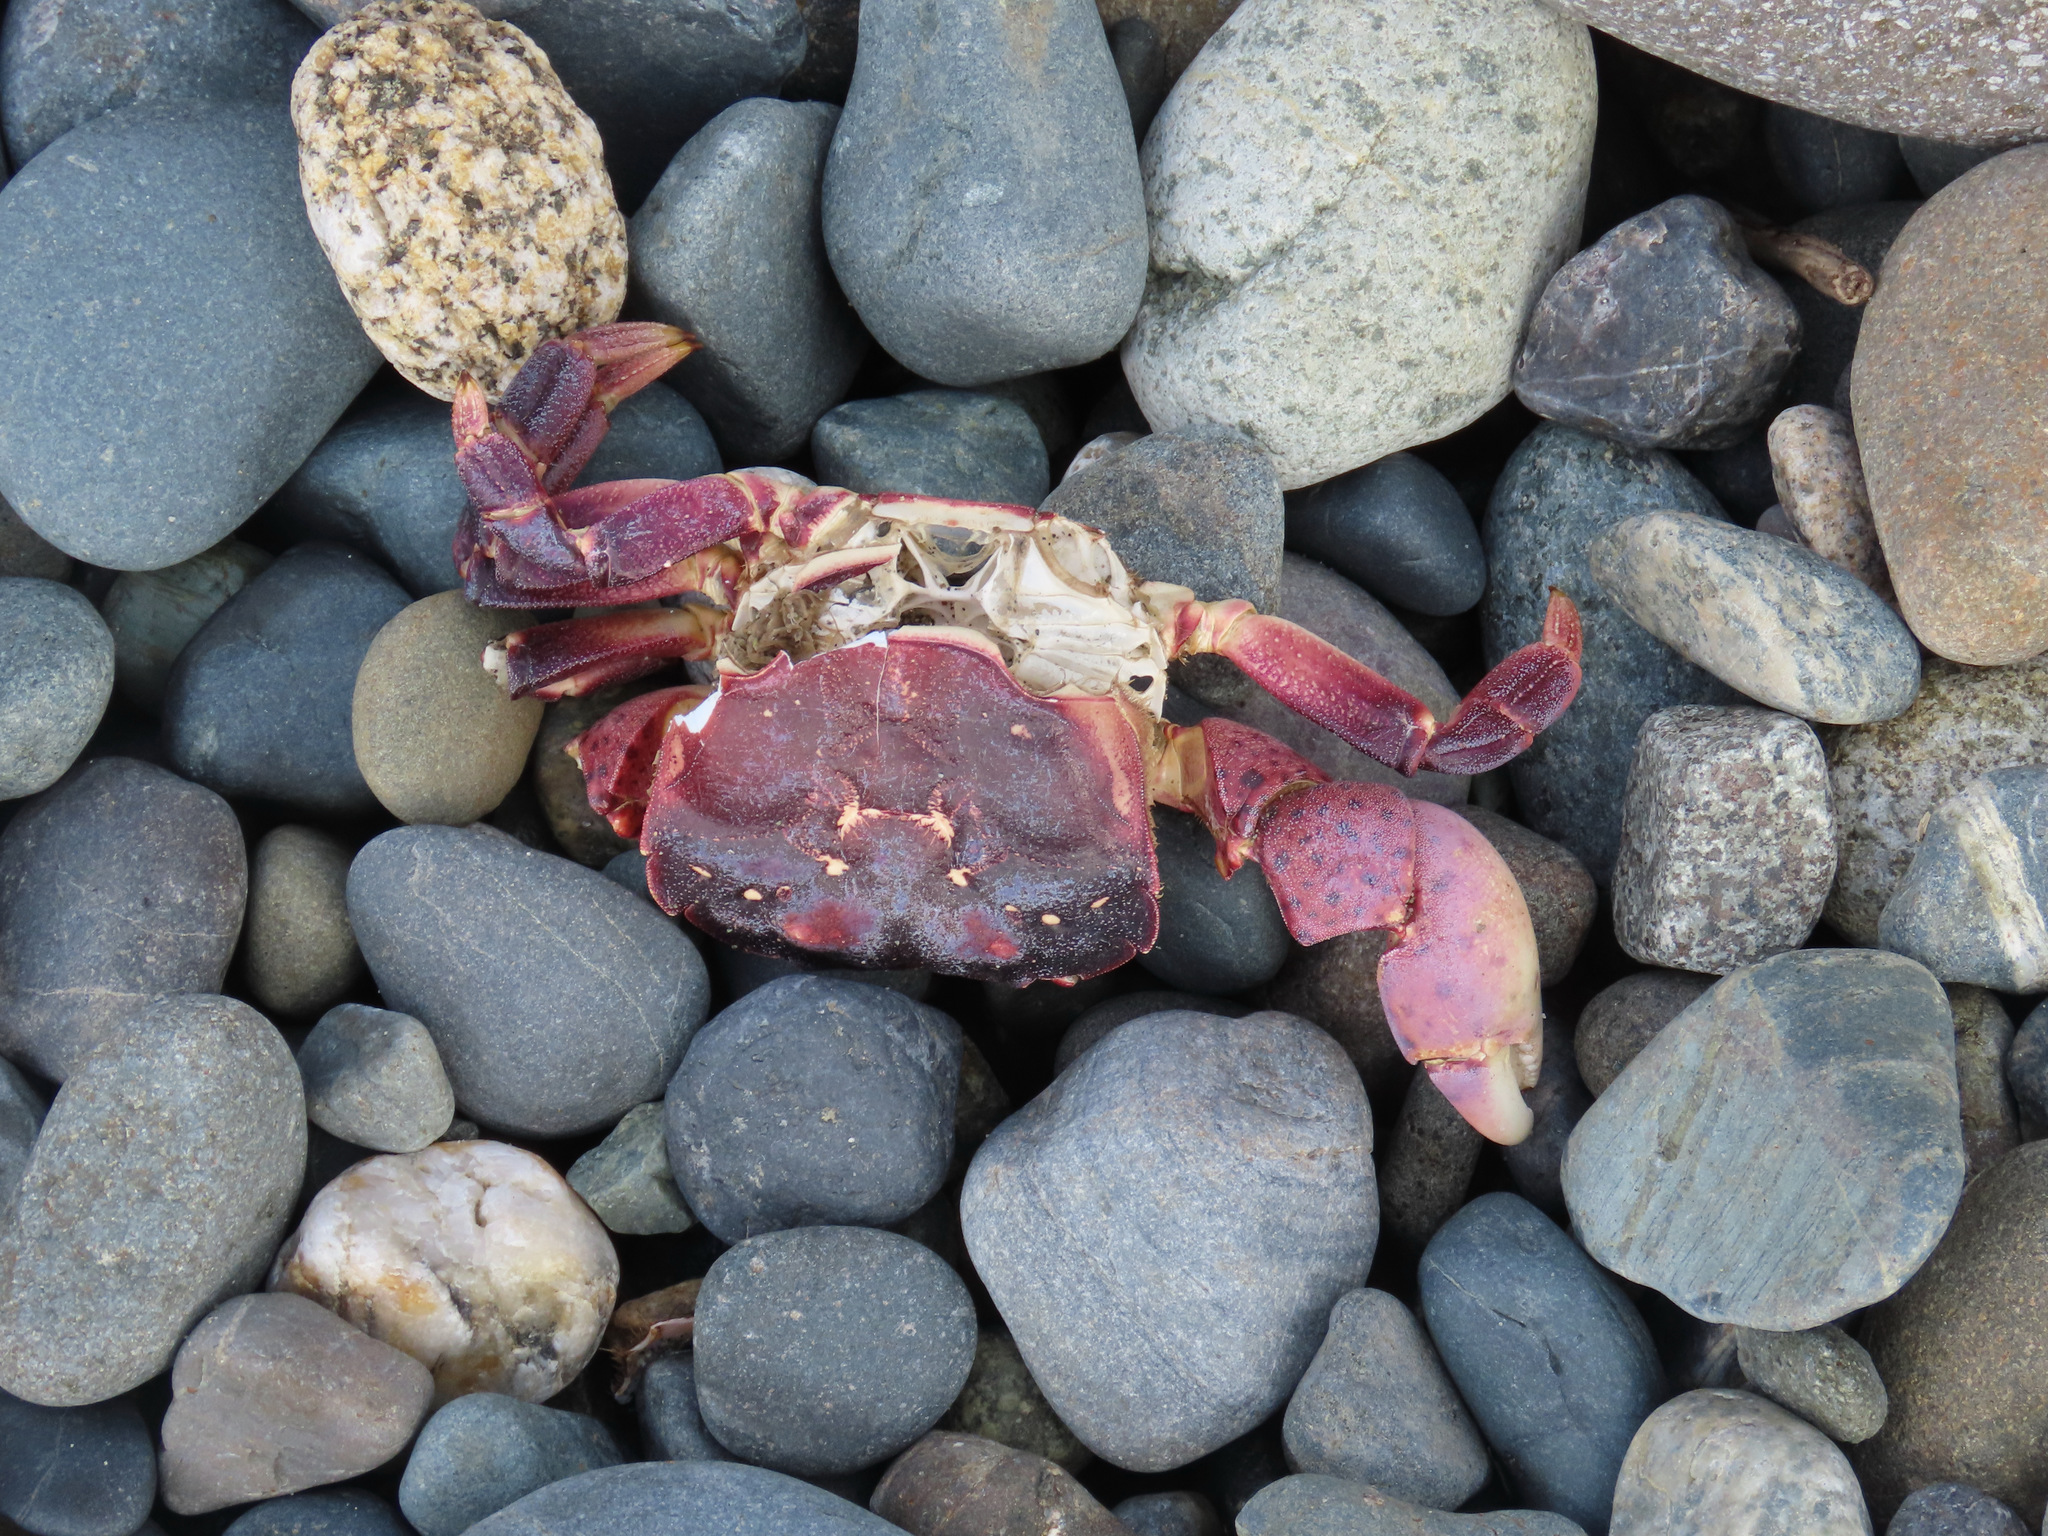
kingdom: Animalia
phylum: Arthropoda
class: Malacostraca
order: Decapoda
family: Varunidae
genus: Hemigrapsus
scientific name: Hemigrapsus nudus
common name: Purple shore crab
